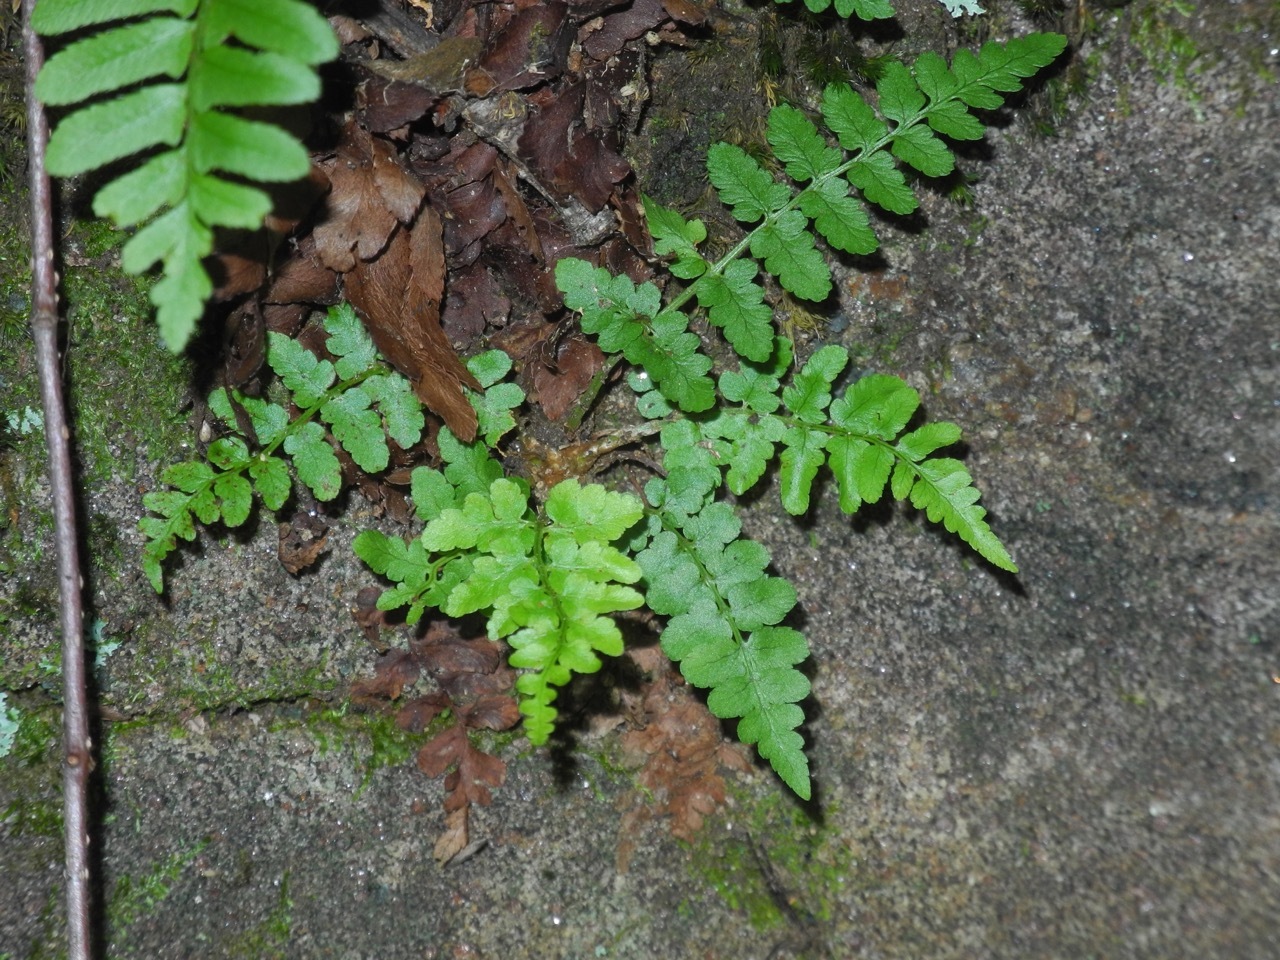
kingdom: Plantae
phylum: Tracheophyta
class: Polypodiopsida
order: Polypodiales
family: Woodsiaceae
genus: Physematium
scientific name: Physematium obtusum
